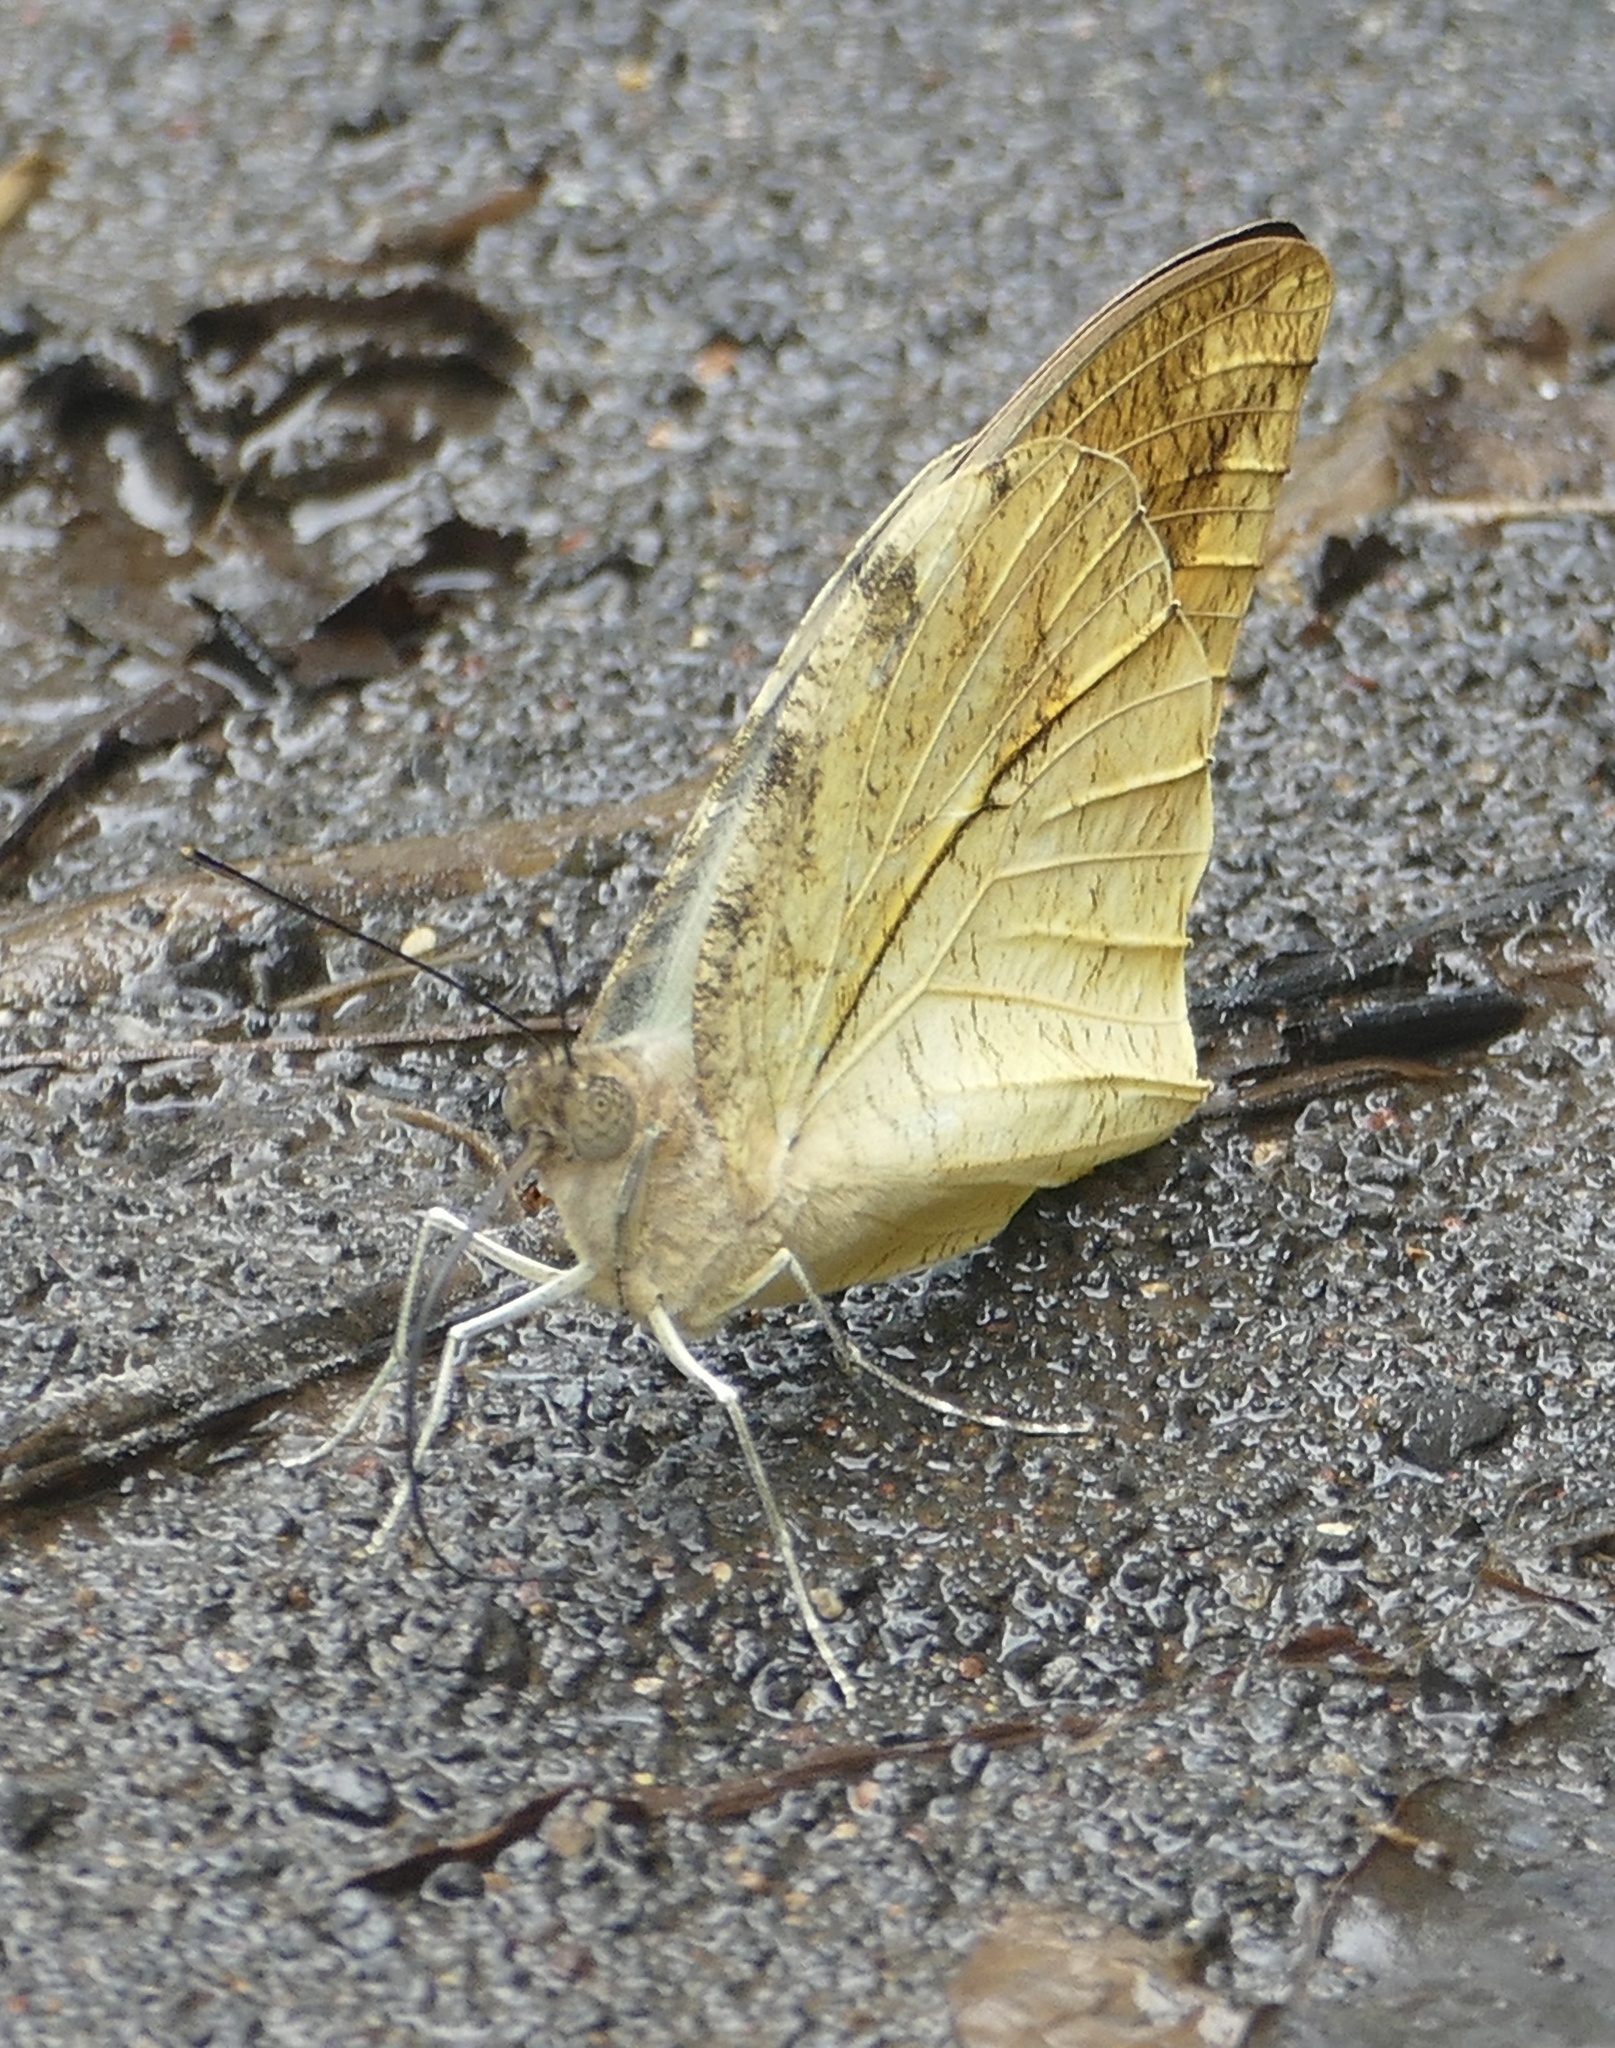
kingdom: Animalia
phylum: Arthropoda
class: Insecta
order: Lepidoptera
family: Pieridae
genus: Hebomoia
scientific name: Hebomoia glaucippe
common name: Great orange tip
